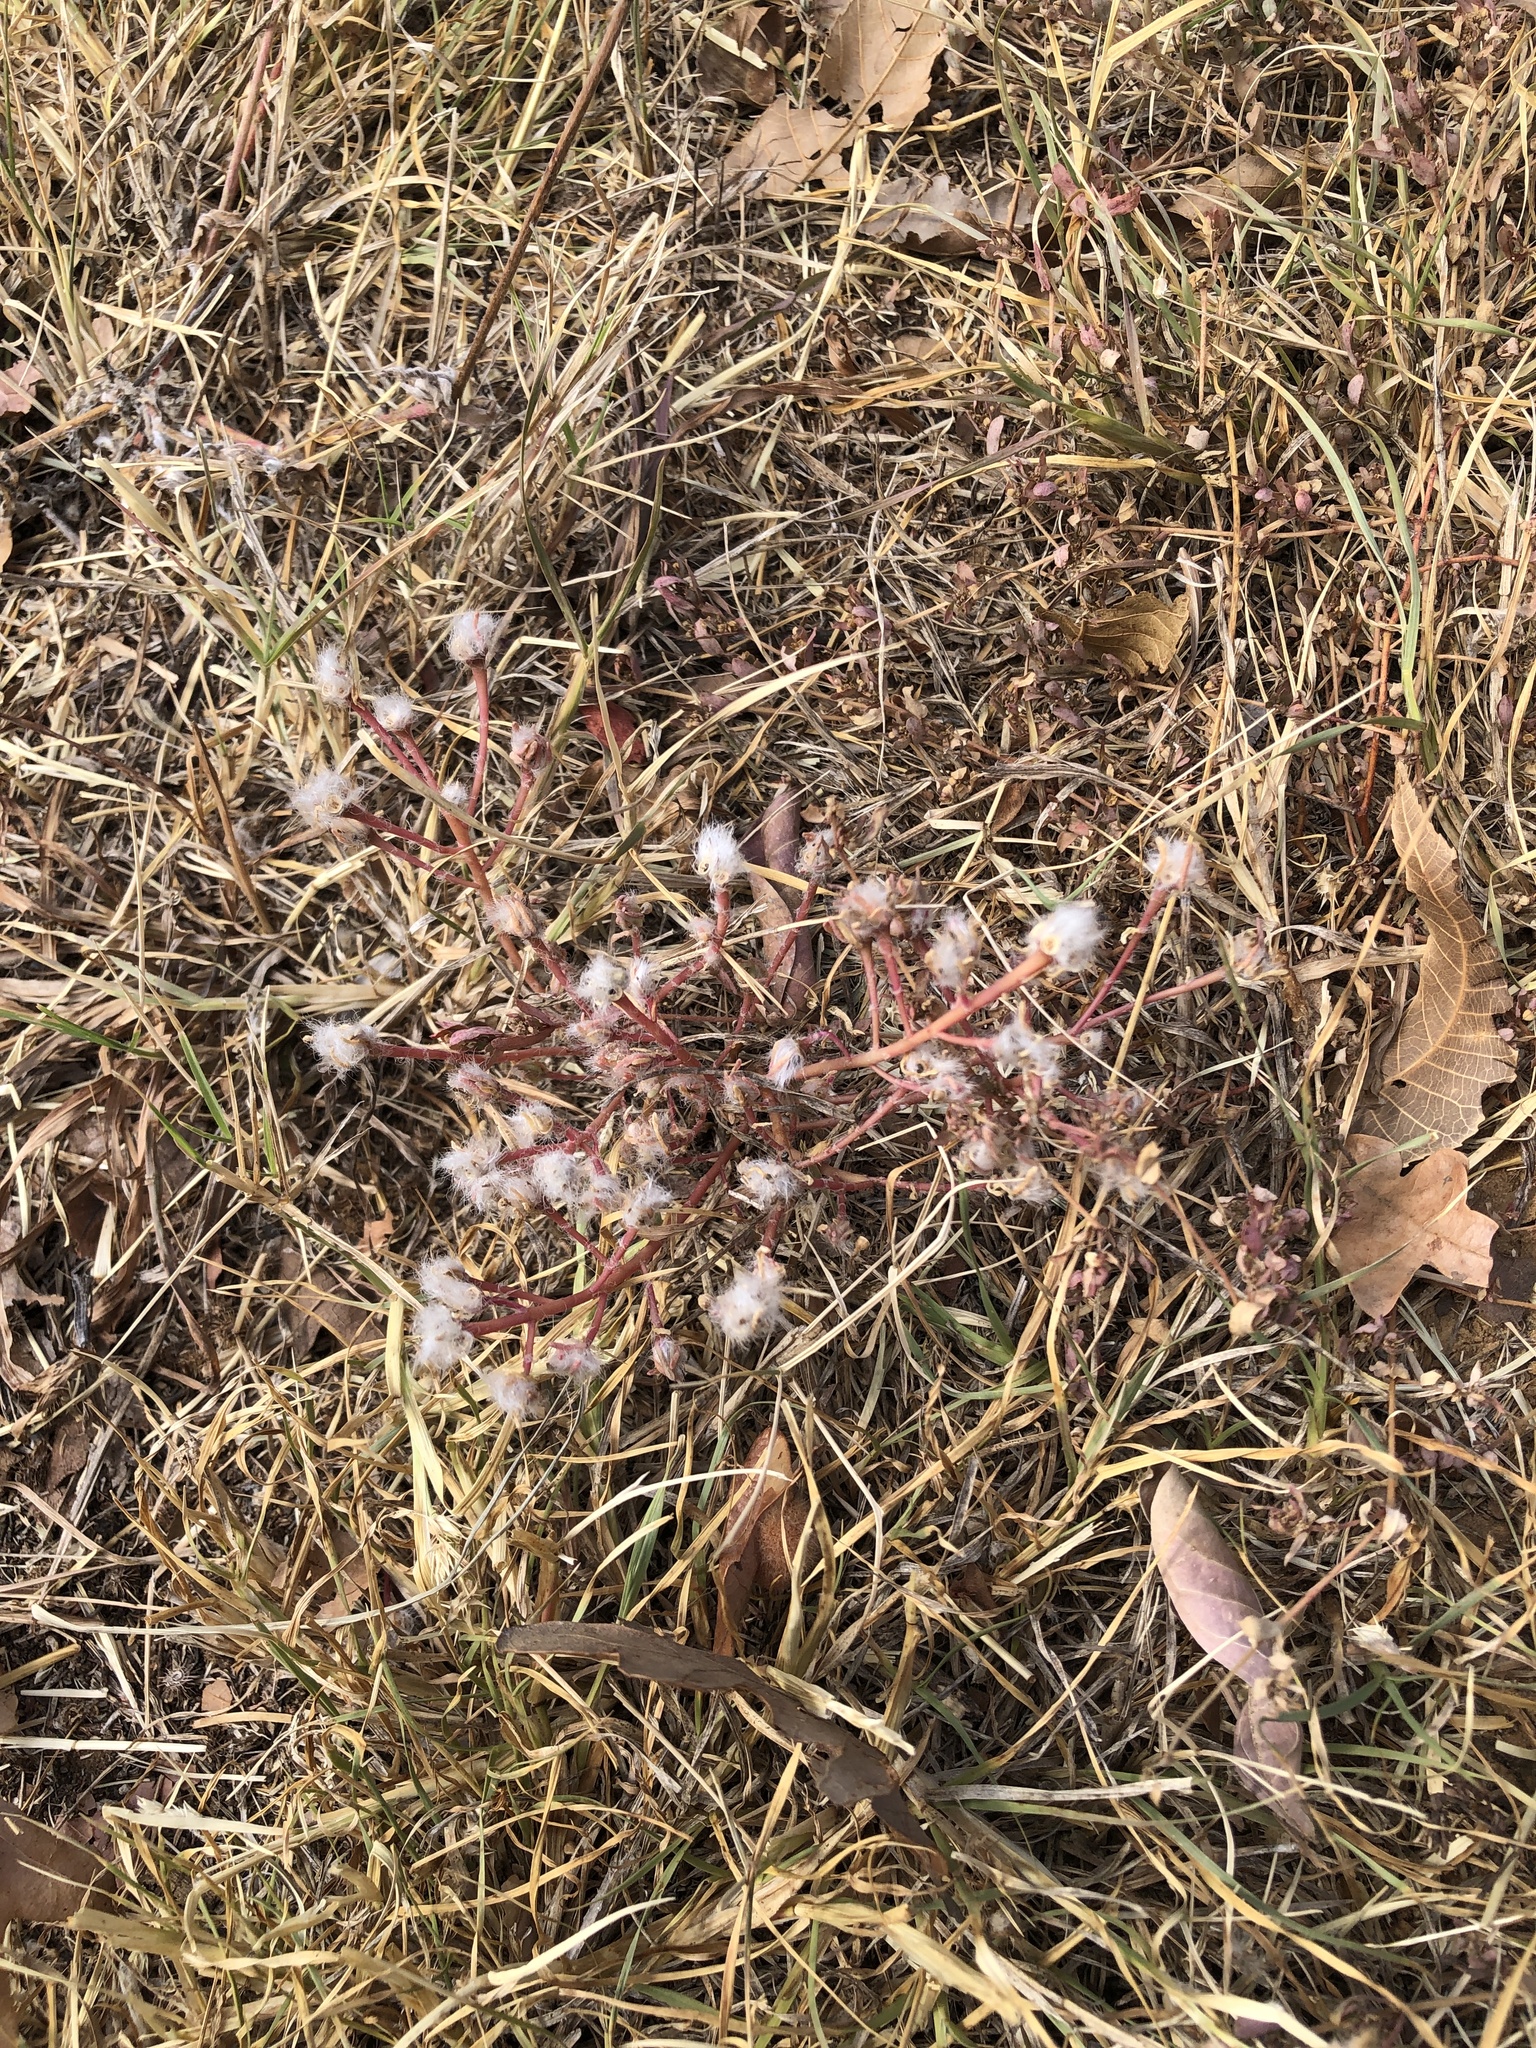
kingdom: Plantae
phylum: Tracheophyta
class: Magnoliopsida
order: Caryophyllales
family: Portulacaceae
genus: Portulaca
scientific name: Portulaca pilosa
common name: Kiss me quick
